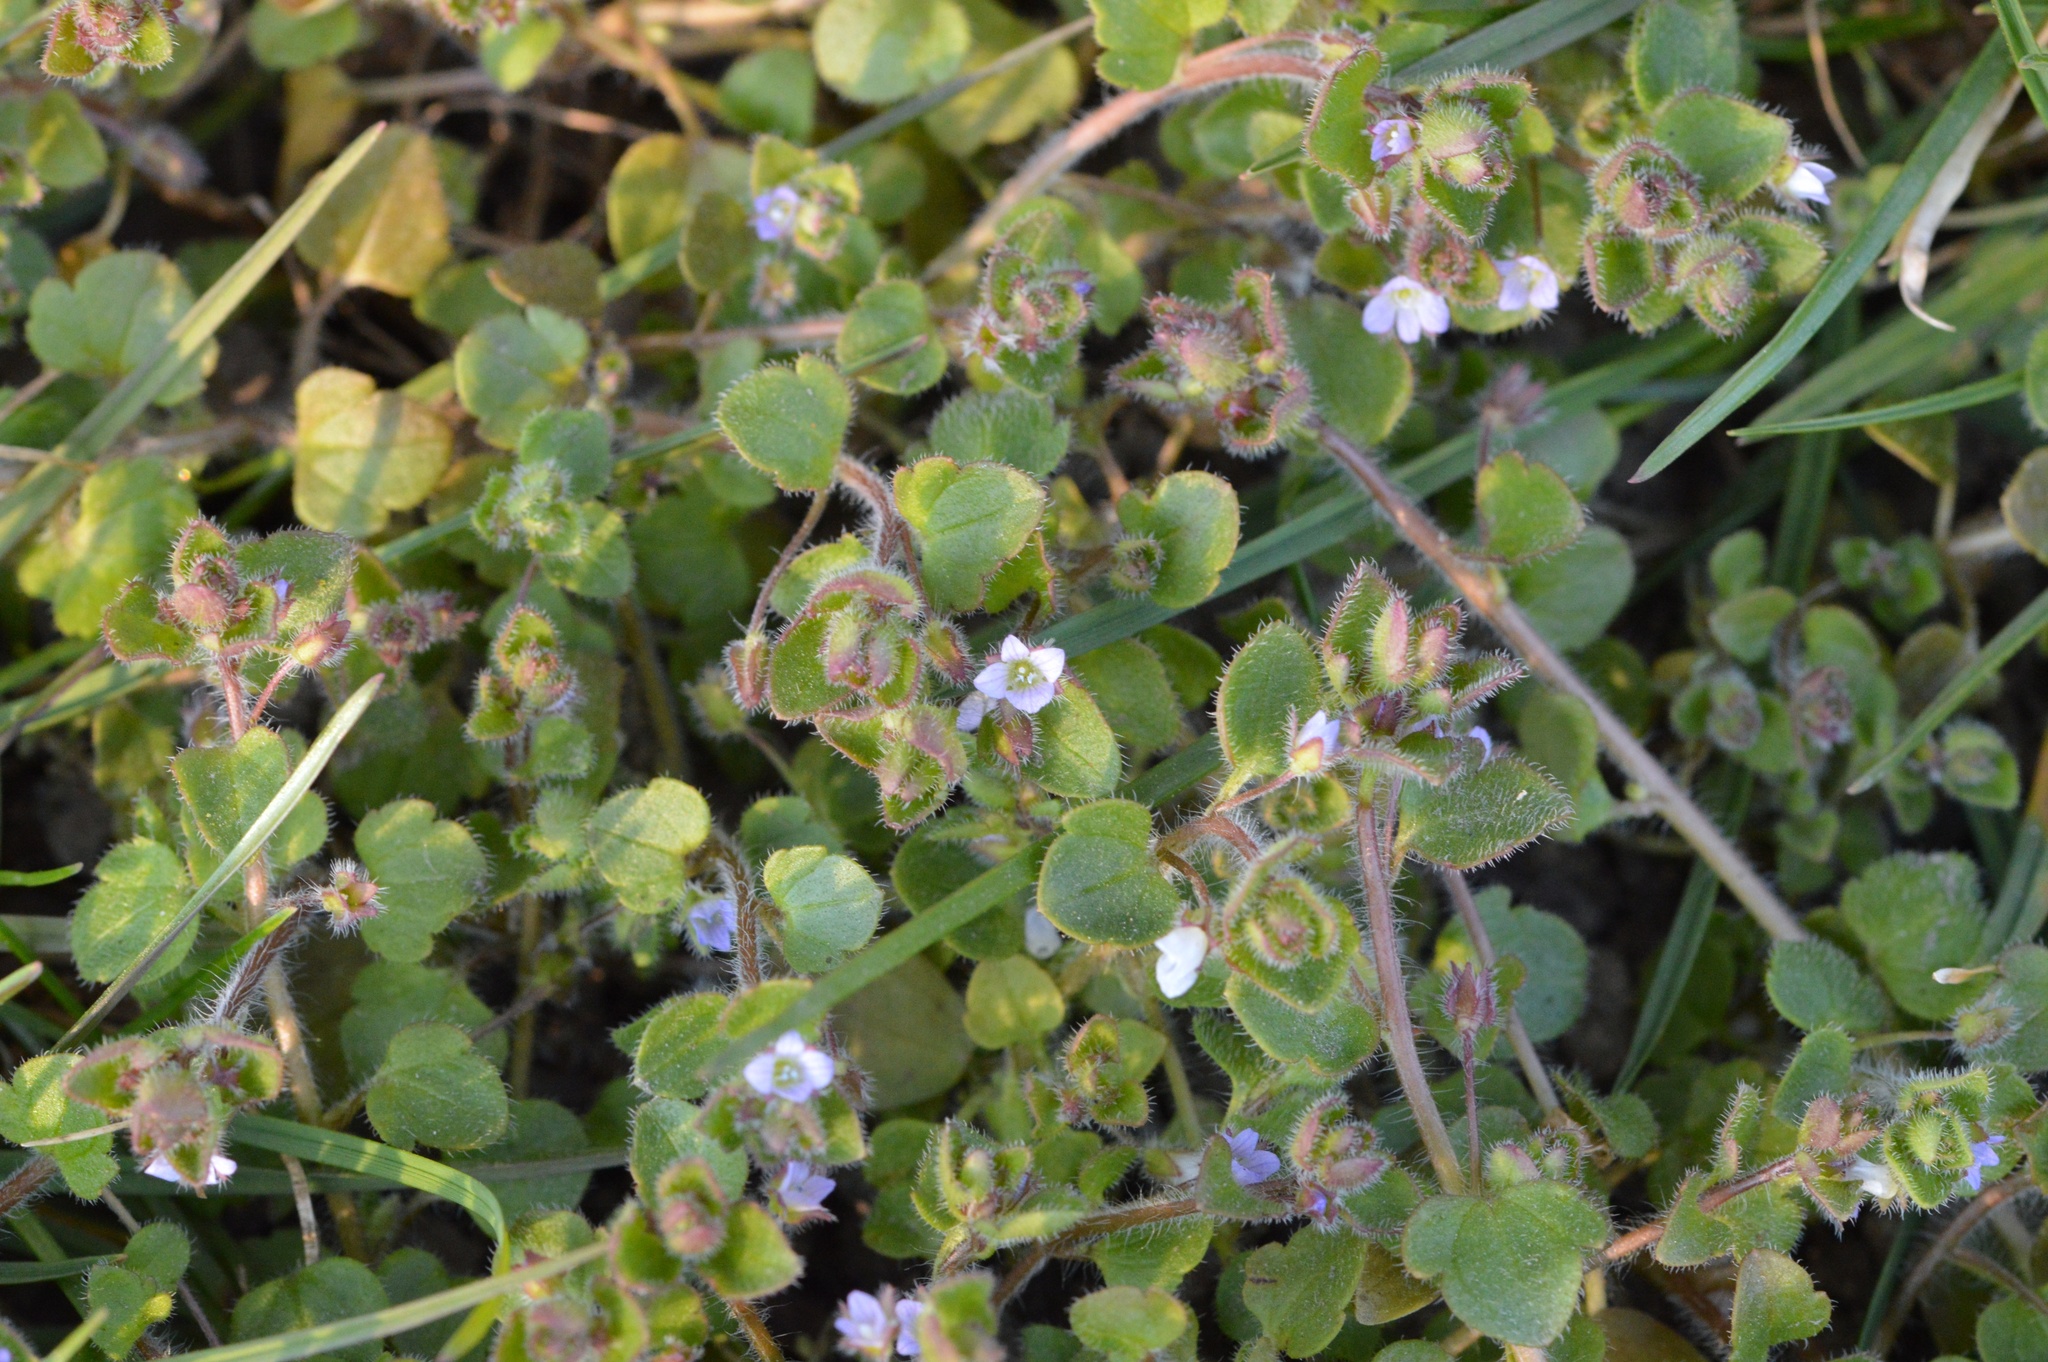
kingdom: Plantae
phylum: Tracheophyta
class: Magnoliopsida
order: Lamiales
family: Plantaginaceae
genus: Veronica
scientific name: Veronica sublobata
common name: False ivy-leaved speedwell
